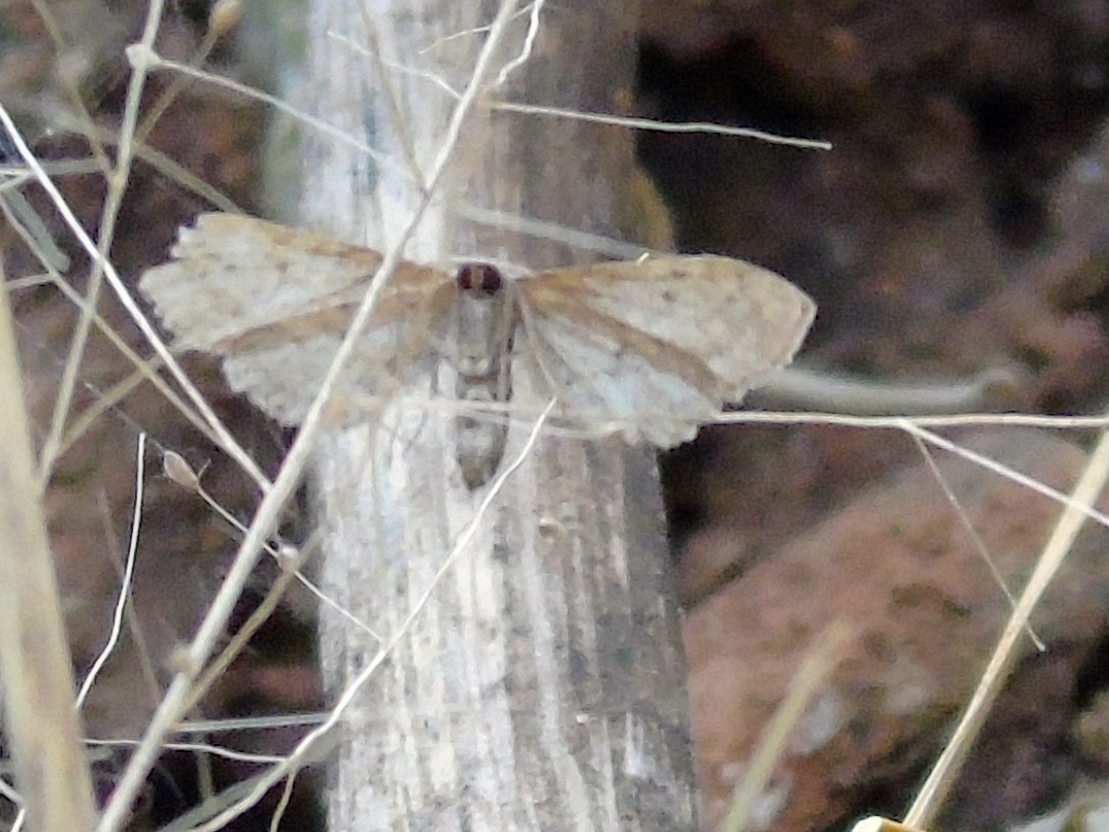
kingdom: Animalia
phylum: Arthropoda
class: Insecta
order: Lepidoptera
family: Geometridae
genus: Sterrhinae
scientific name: Sterrhinae
